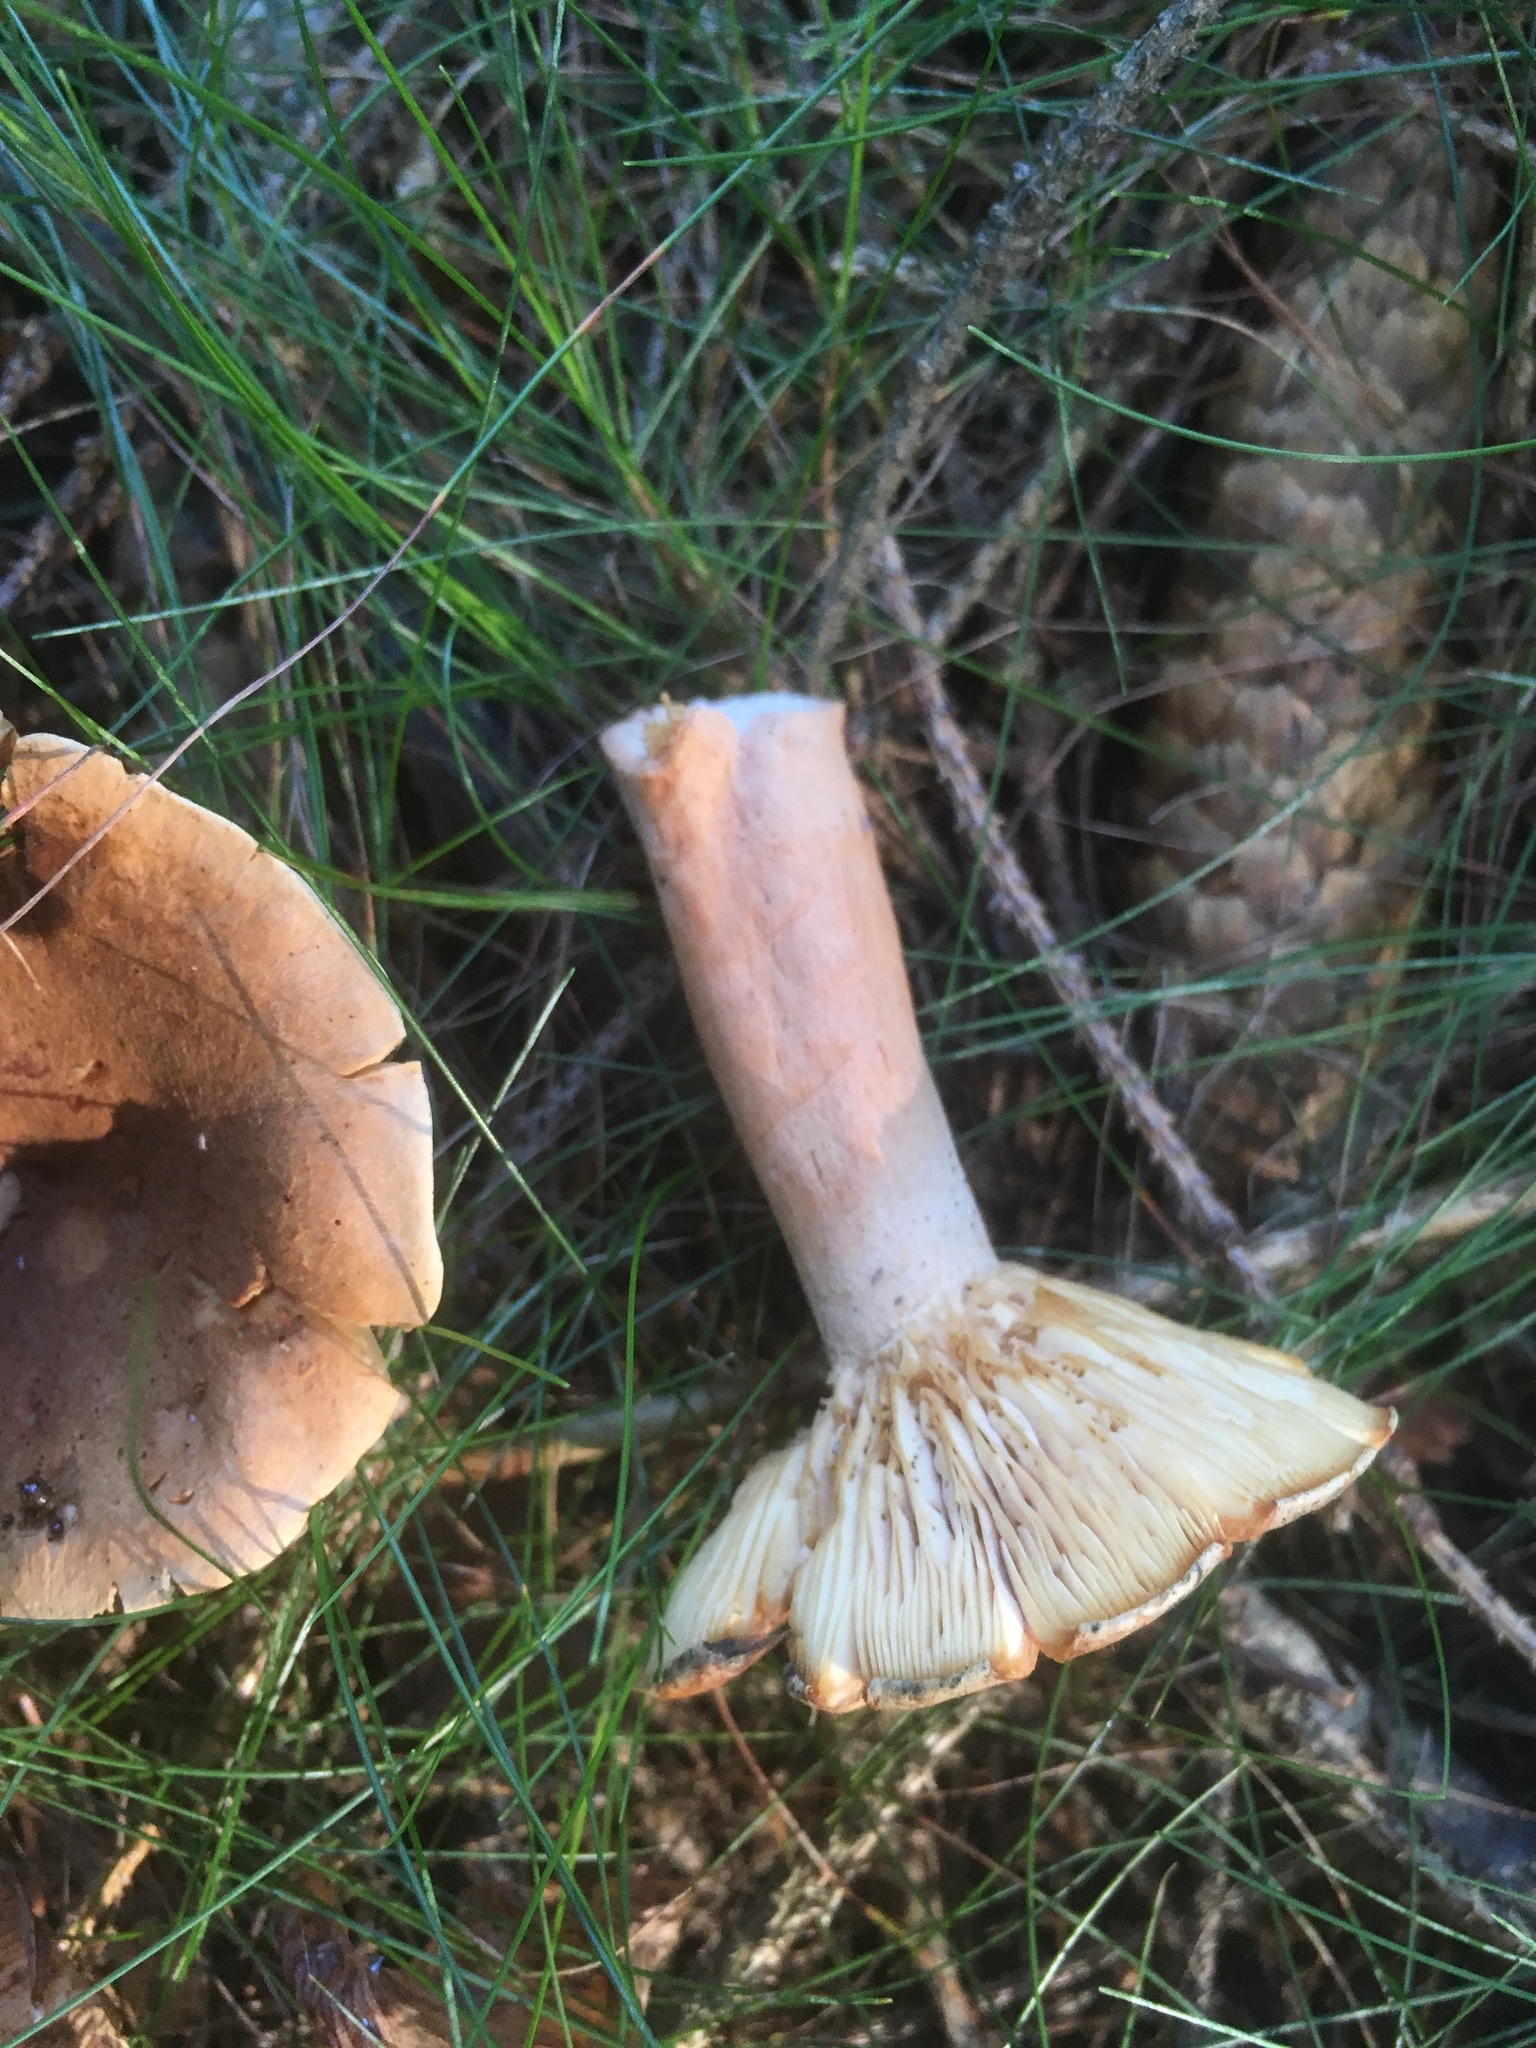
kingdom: Fungi
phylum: Basidiomycota
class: Agaricomycetes
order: Russulales
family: Russulaceae
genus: Lactarius
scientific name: Lactarius deliciosus
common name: Saffron milk-cap
